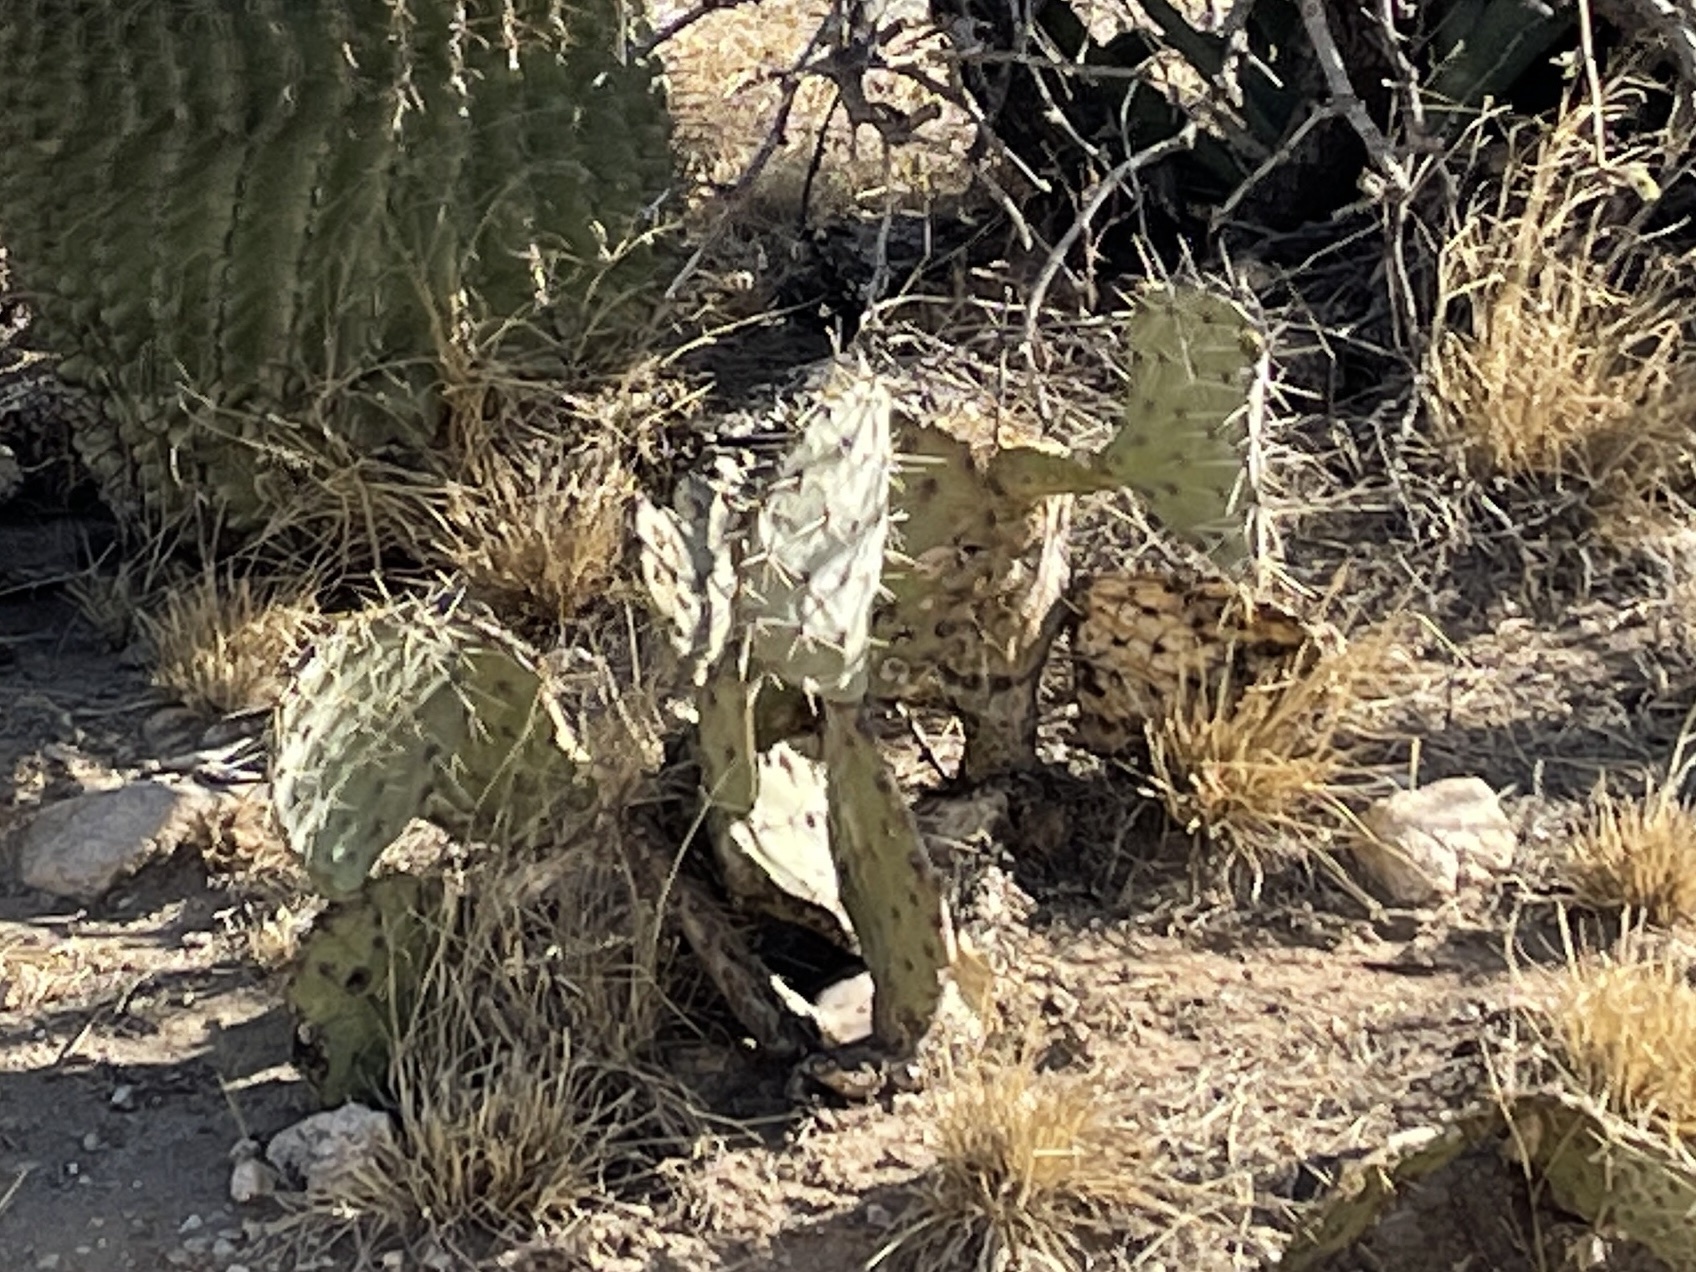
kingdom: Plantae
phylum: Tracheophyta
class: Magnoliopsida
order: Caryophyllales
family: Cactaceae
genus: Opuntia
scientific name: Opuntia engelmannii
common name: Cactus-apple
